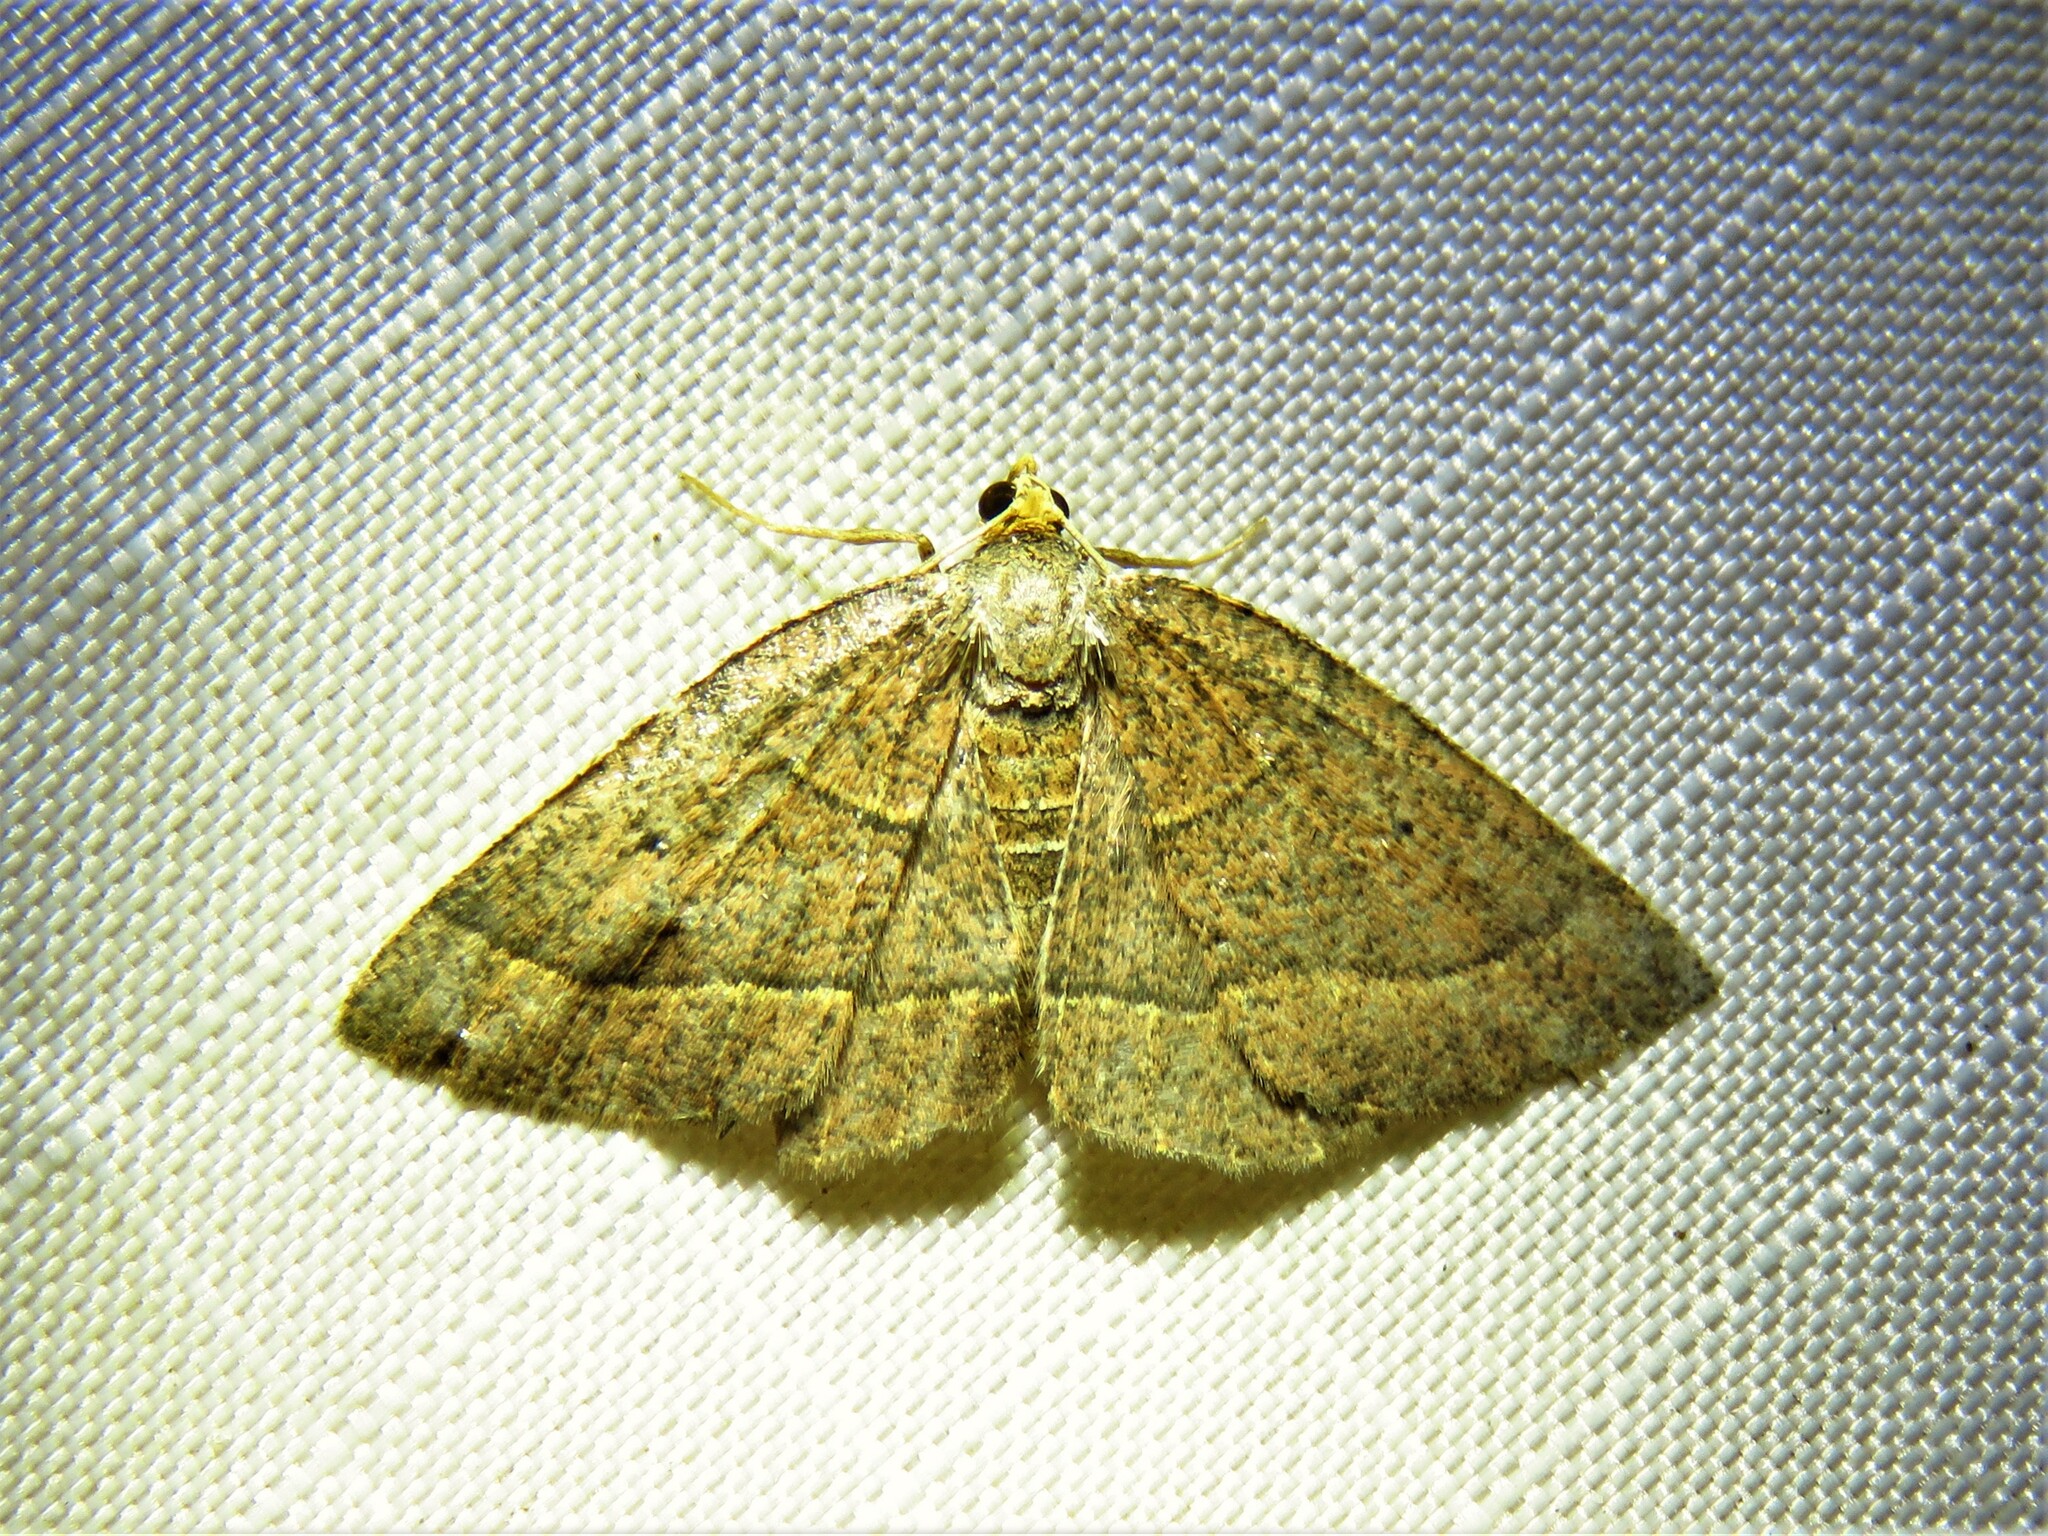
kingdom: Animalia
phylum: Arthropoda
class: Insecta
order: Lepidoptera
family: Geometridae
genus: Episemasia
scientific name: Episemasia cervinaria
